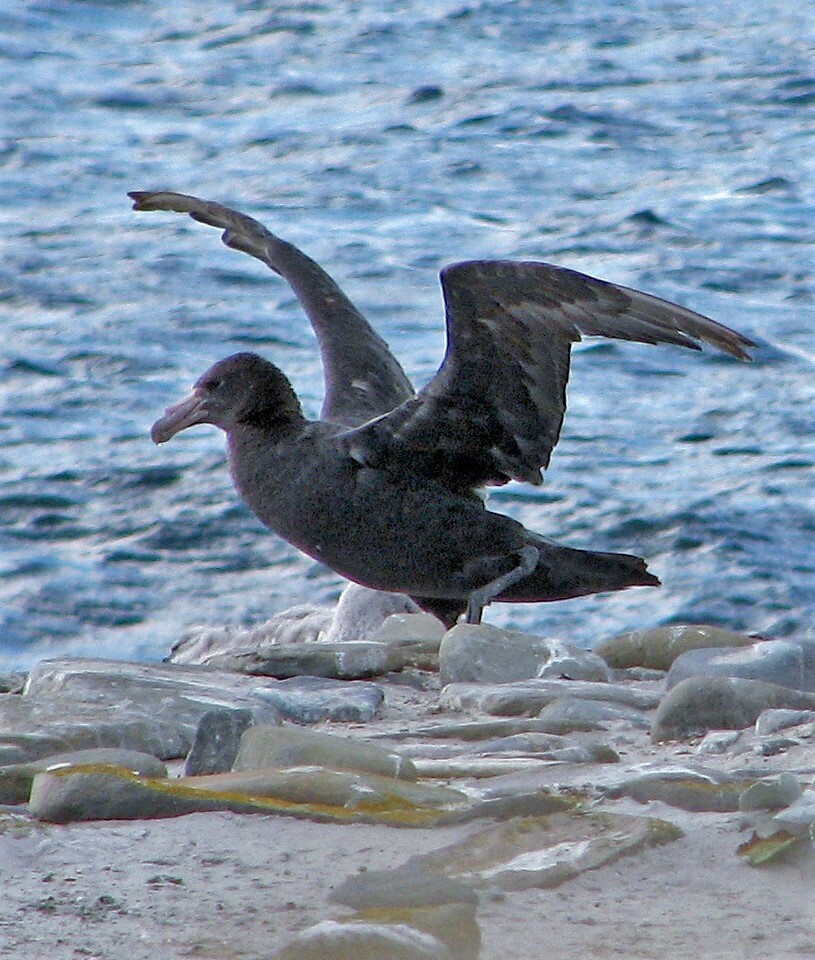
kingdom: Animalia
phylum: Chordata
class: Aves
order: Procellariiformes
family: Procellariidae
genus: Macronectes
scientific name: Macronectes giganteus
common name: Southern giant petrel
